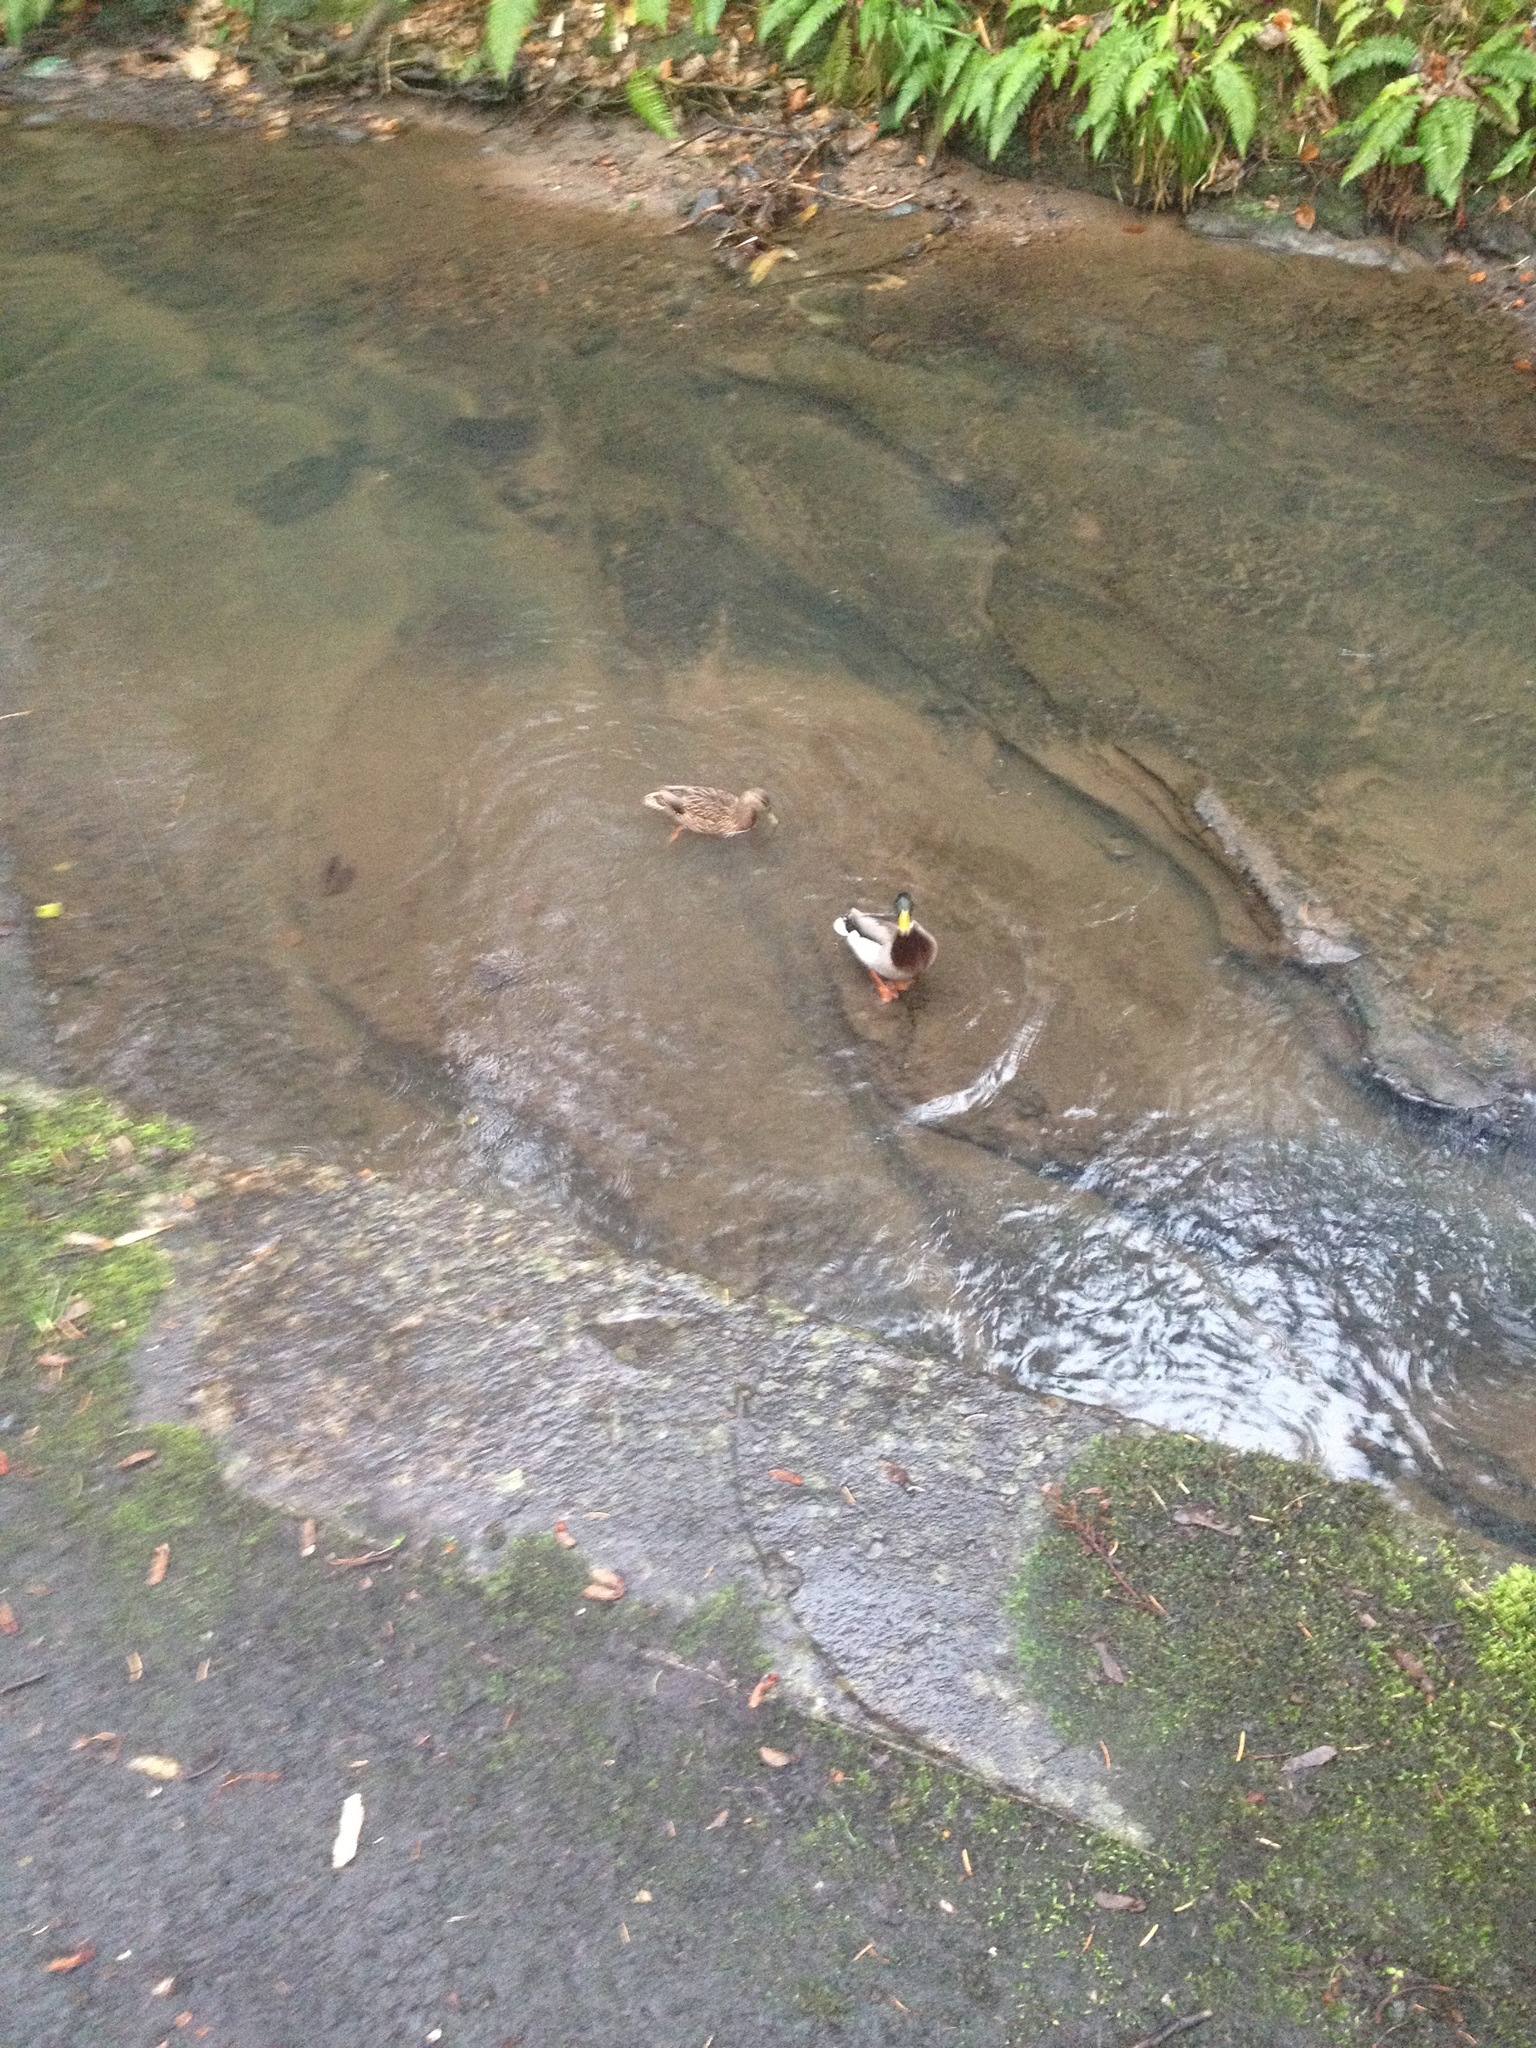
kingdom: Animalia
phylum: Chordata
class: Aves
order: Anseriformes
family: Anatidae
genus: Anas
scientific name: Anas platyrhynchos
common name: Mallard
